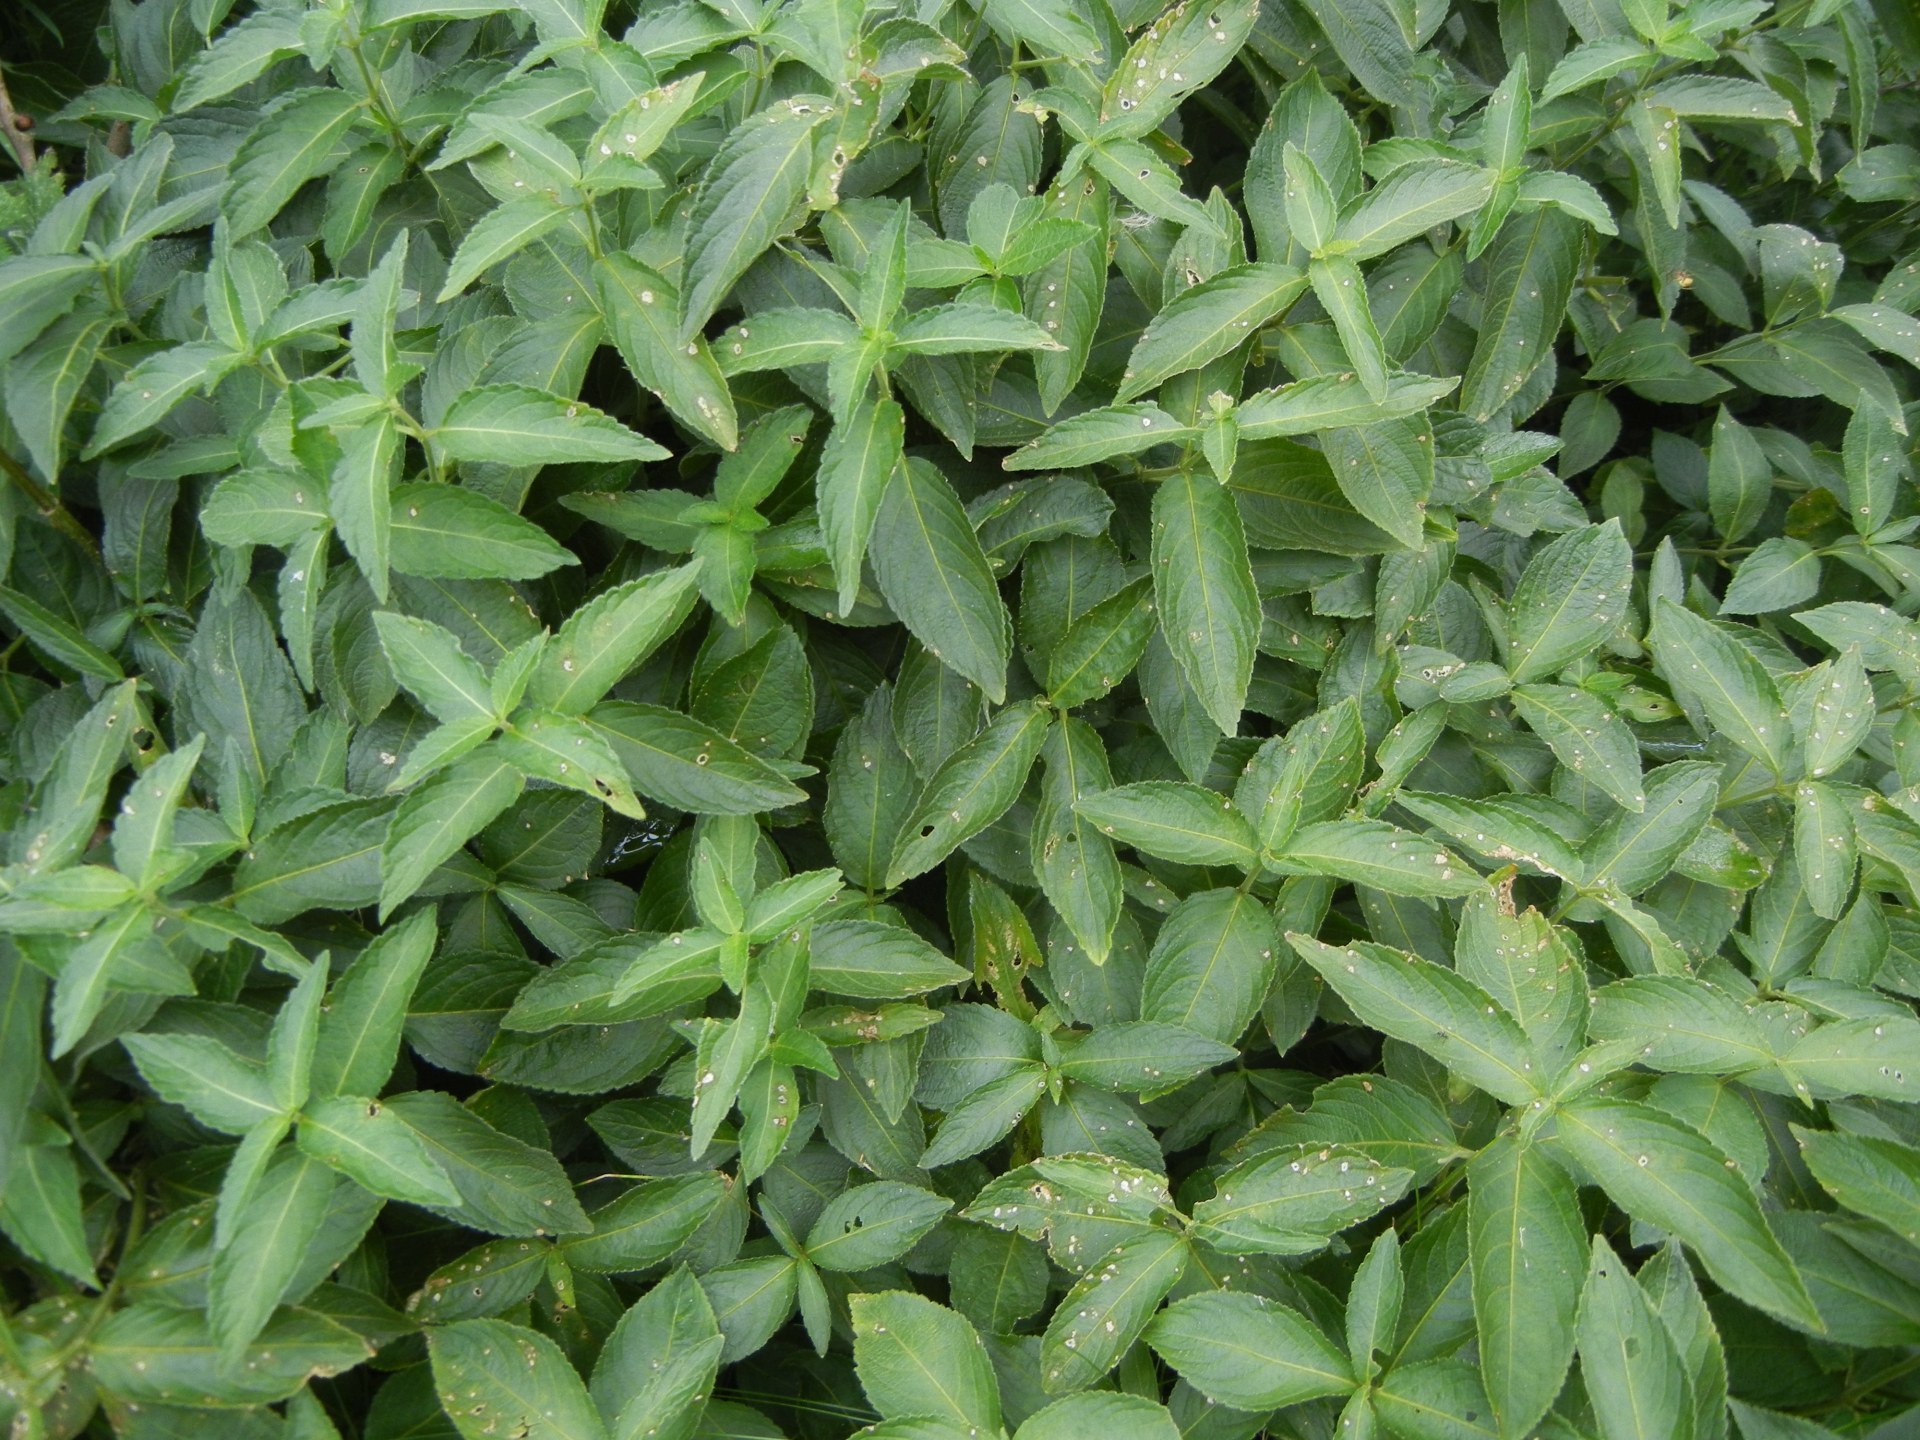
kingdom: Plantae
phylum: Tracheophyta
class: Magnoliopsida
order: Malpighiales
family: Euphorbiaceae
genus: Mercurialis
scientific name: Mercurialis perennis
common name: Dog mercury
